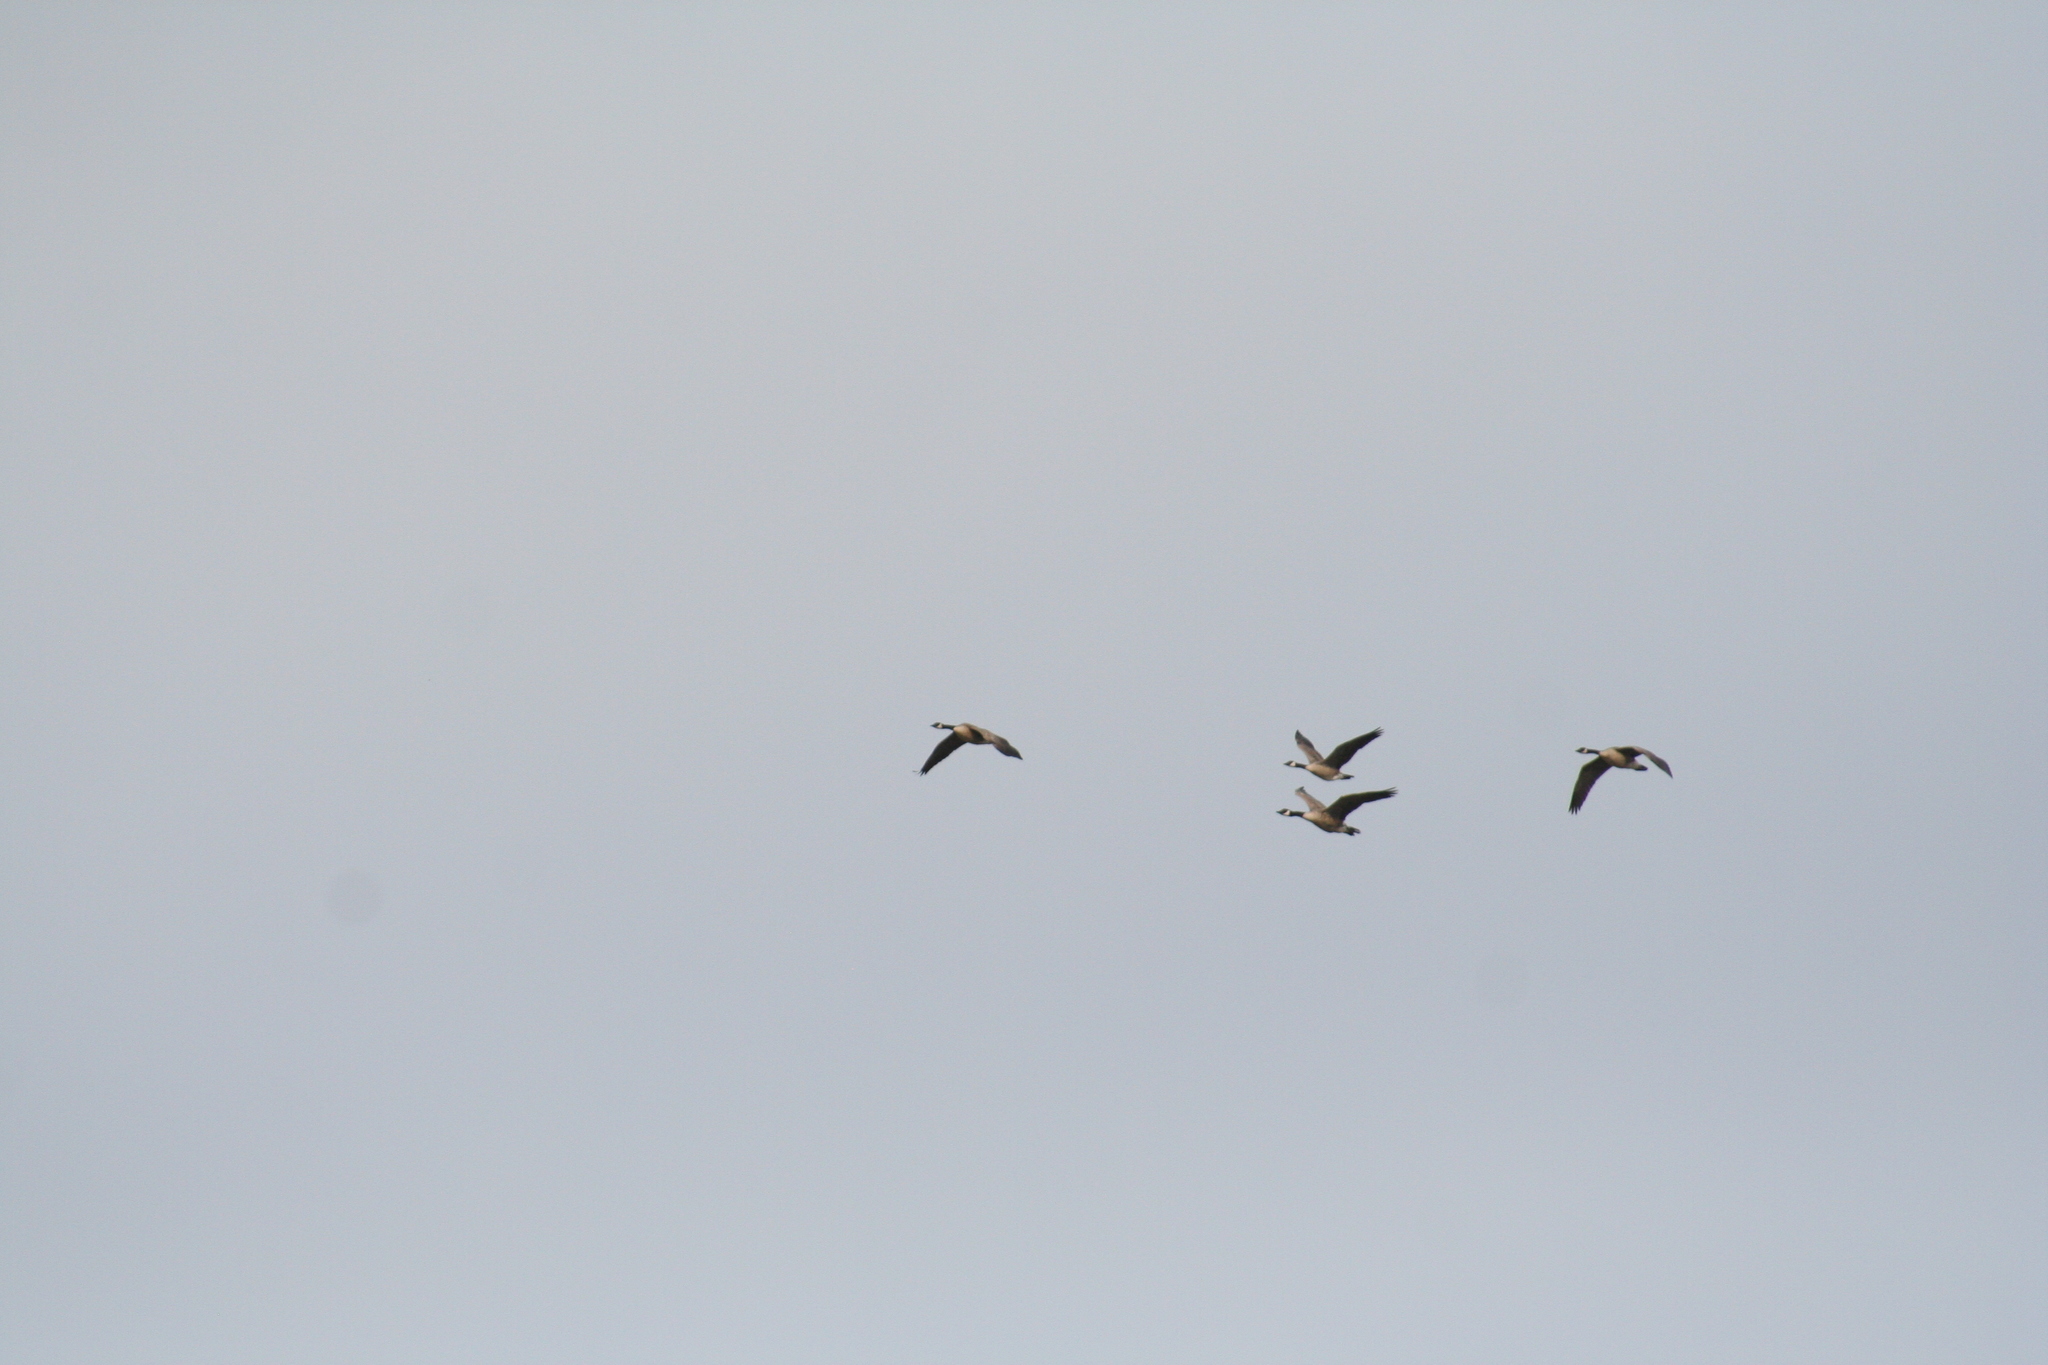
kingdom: Animalia
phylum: Chordata
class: Aves
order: Anseriformes
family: Anatidae
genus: Branta
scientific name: Branta canadensis
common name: Canada goose
